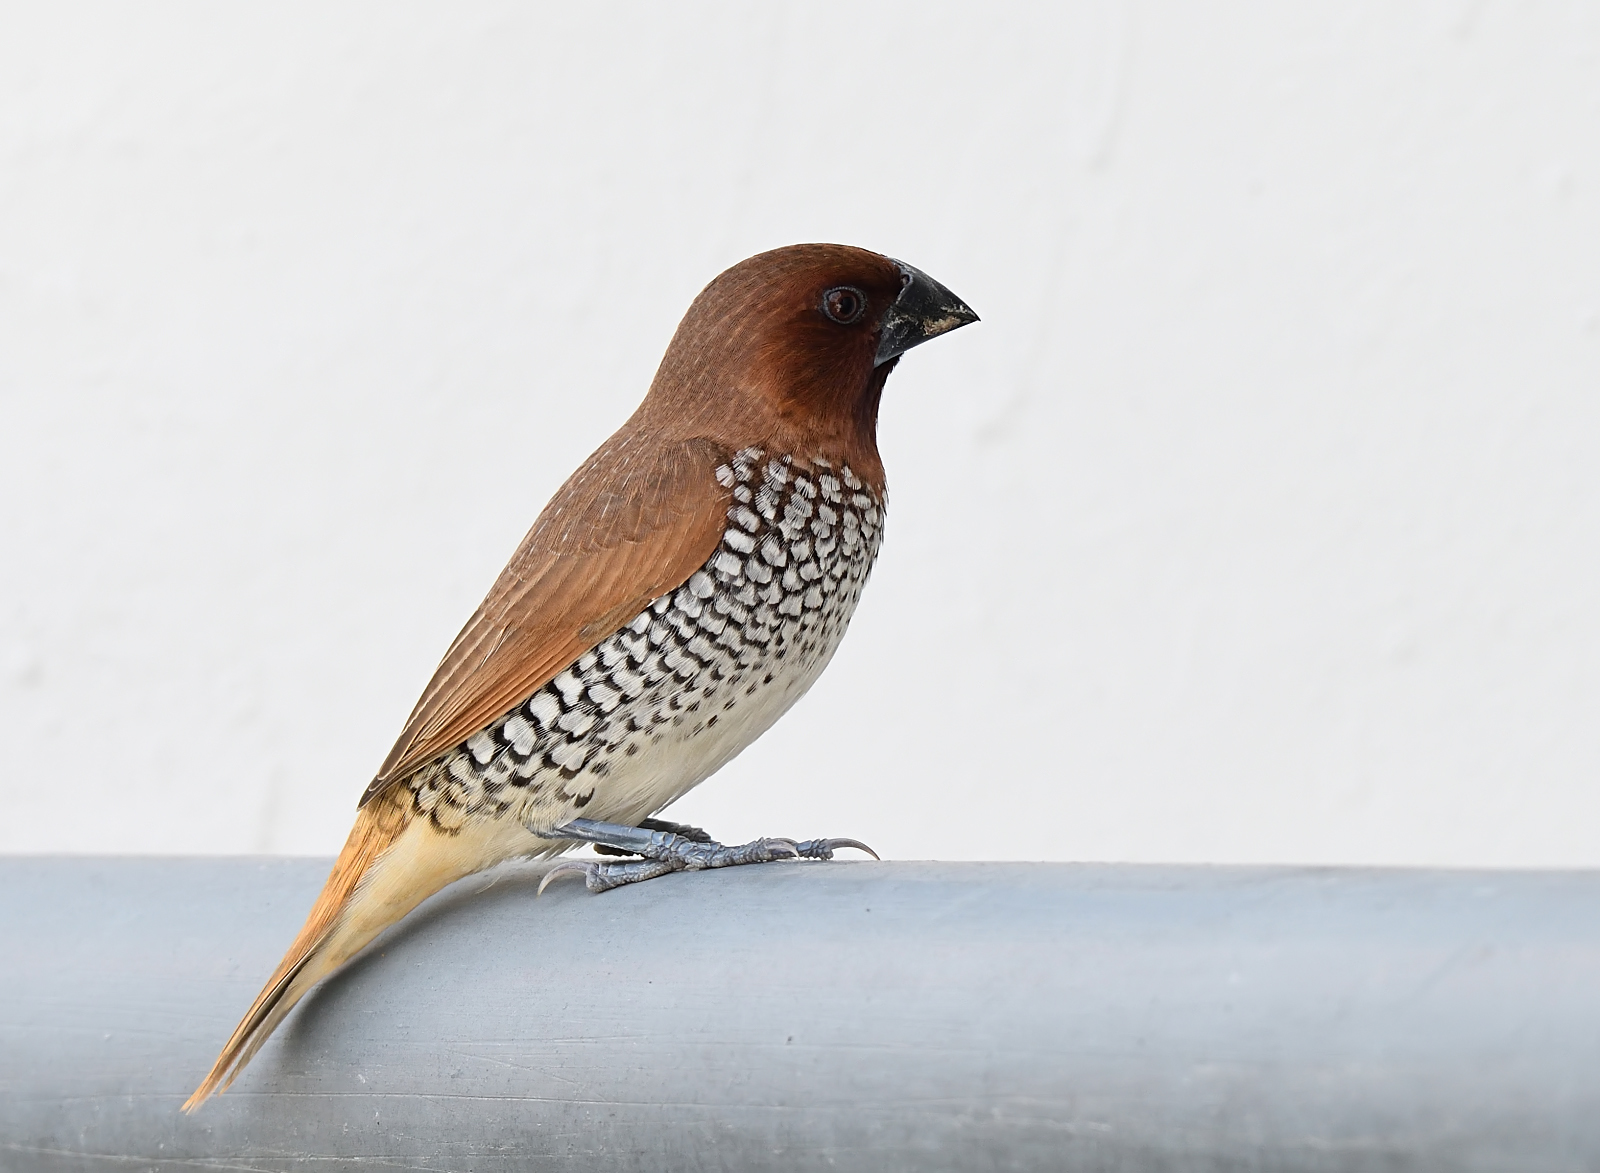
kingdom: Animalia
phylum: Chordata
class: Aves
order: Passeriformes
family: Estrildidae
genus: Lonchura
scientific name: Lonchura punctulata
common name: Scaly-breasted munia
